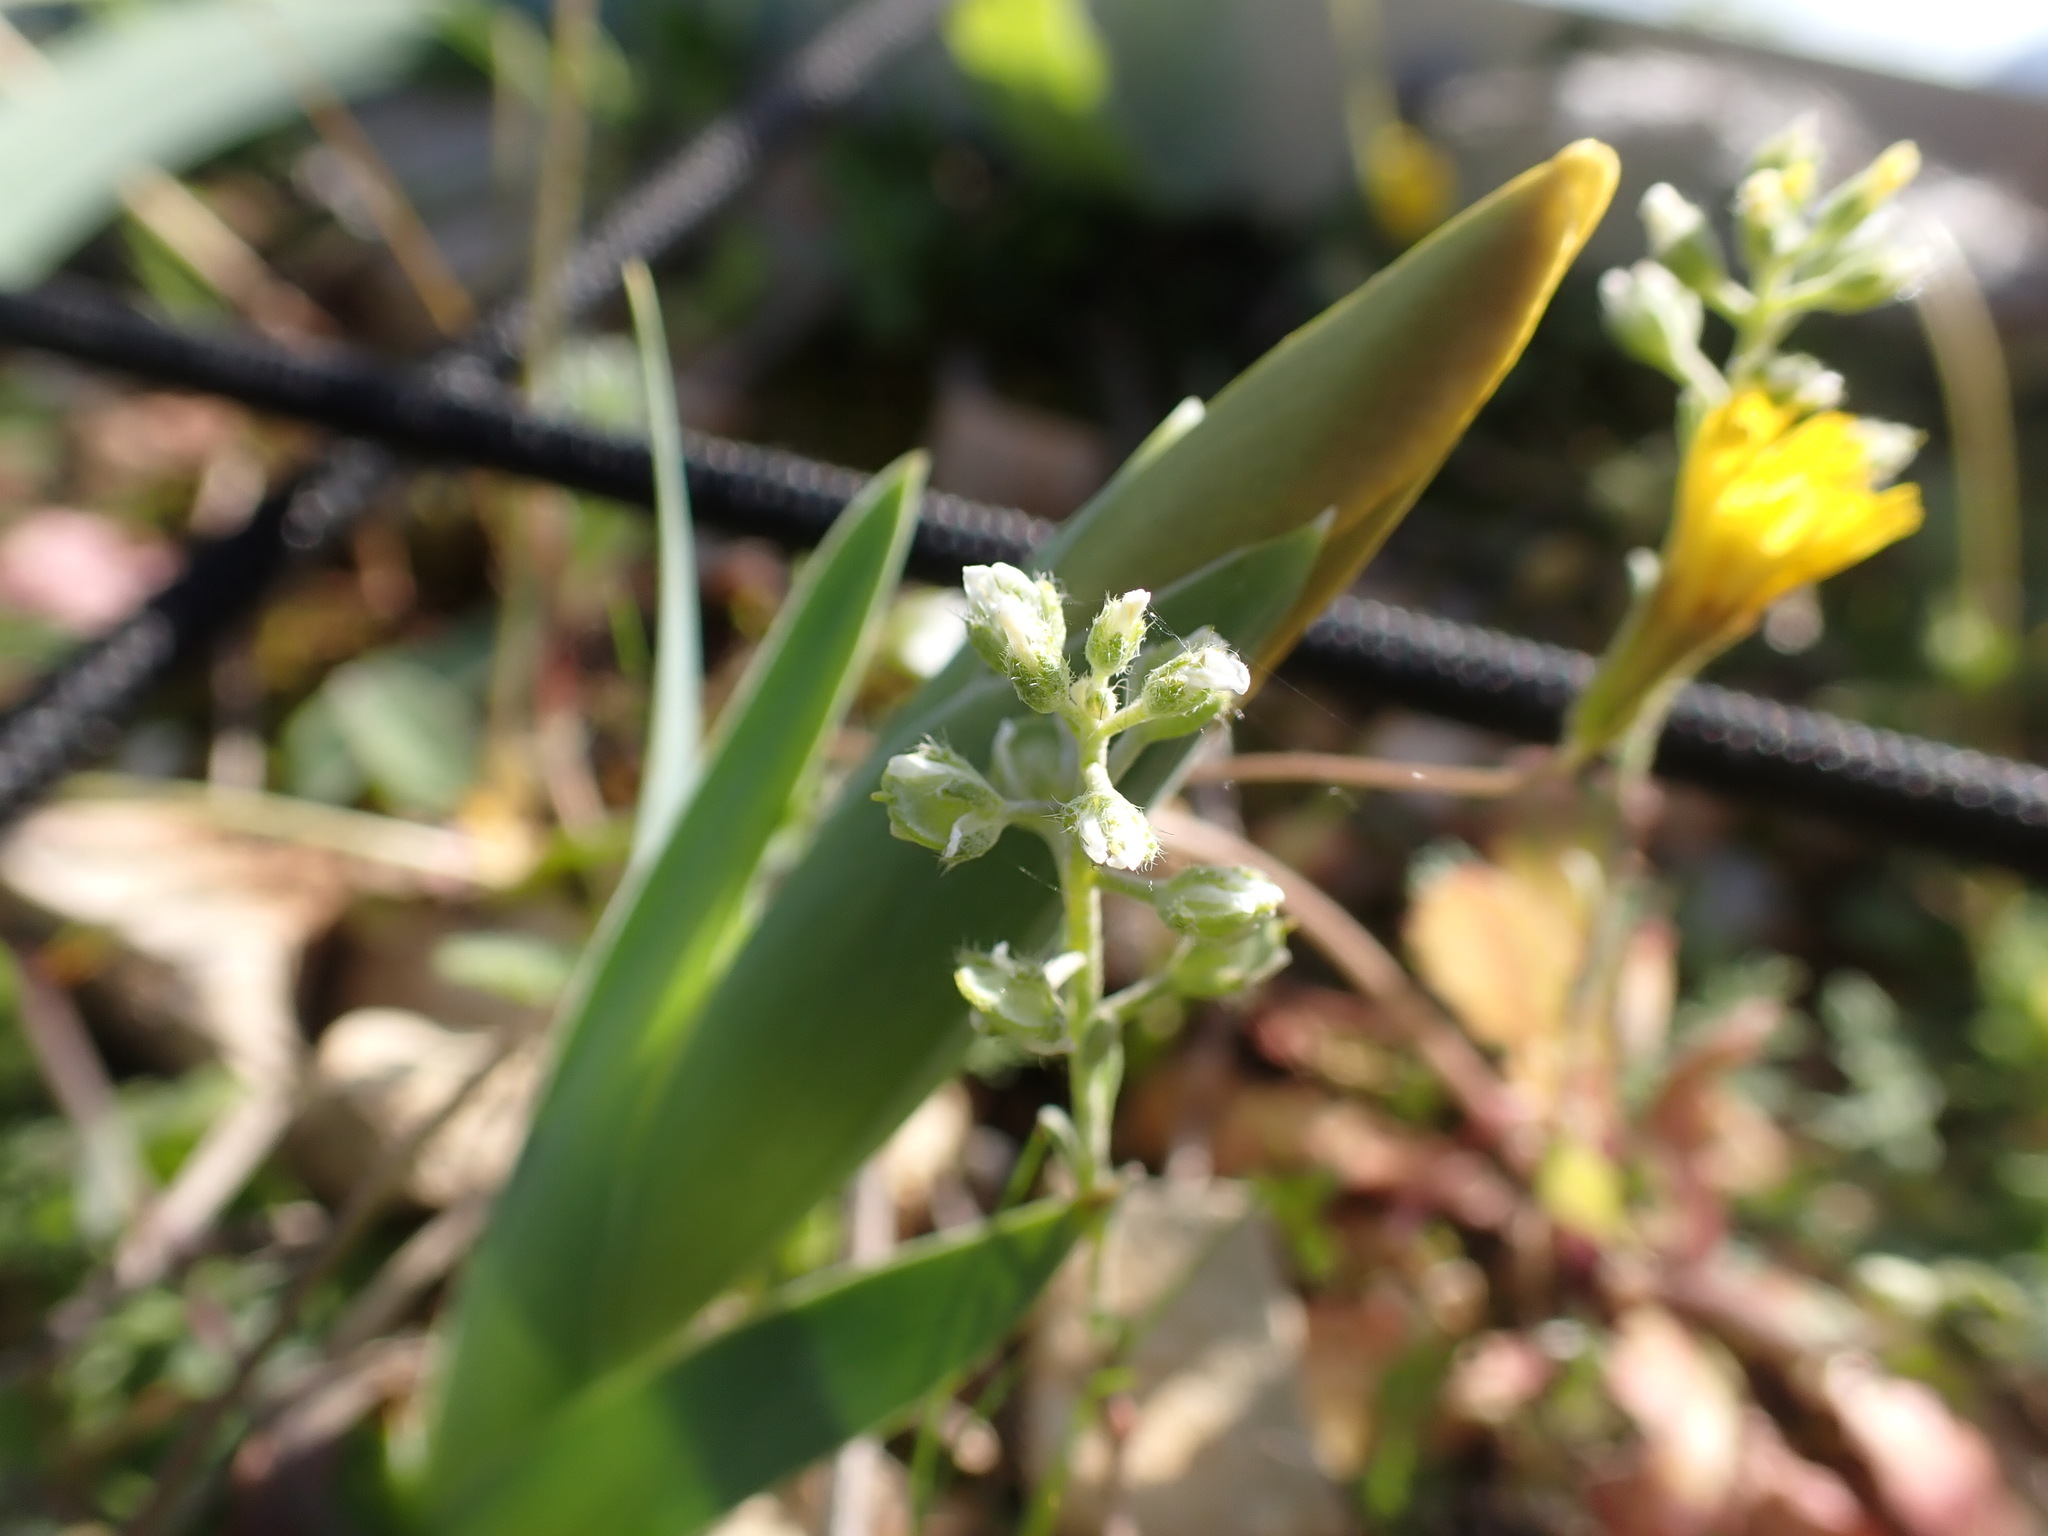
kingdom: Plantae
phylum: Tracheophyta
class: Magnoliopsida
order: Brassicales
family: Brassicaceae
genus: Alyssum
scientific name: Alyssum alyssoides
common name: Small alison
